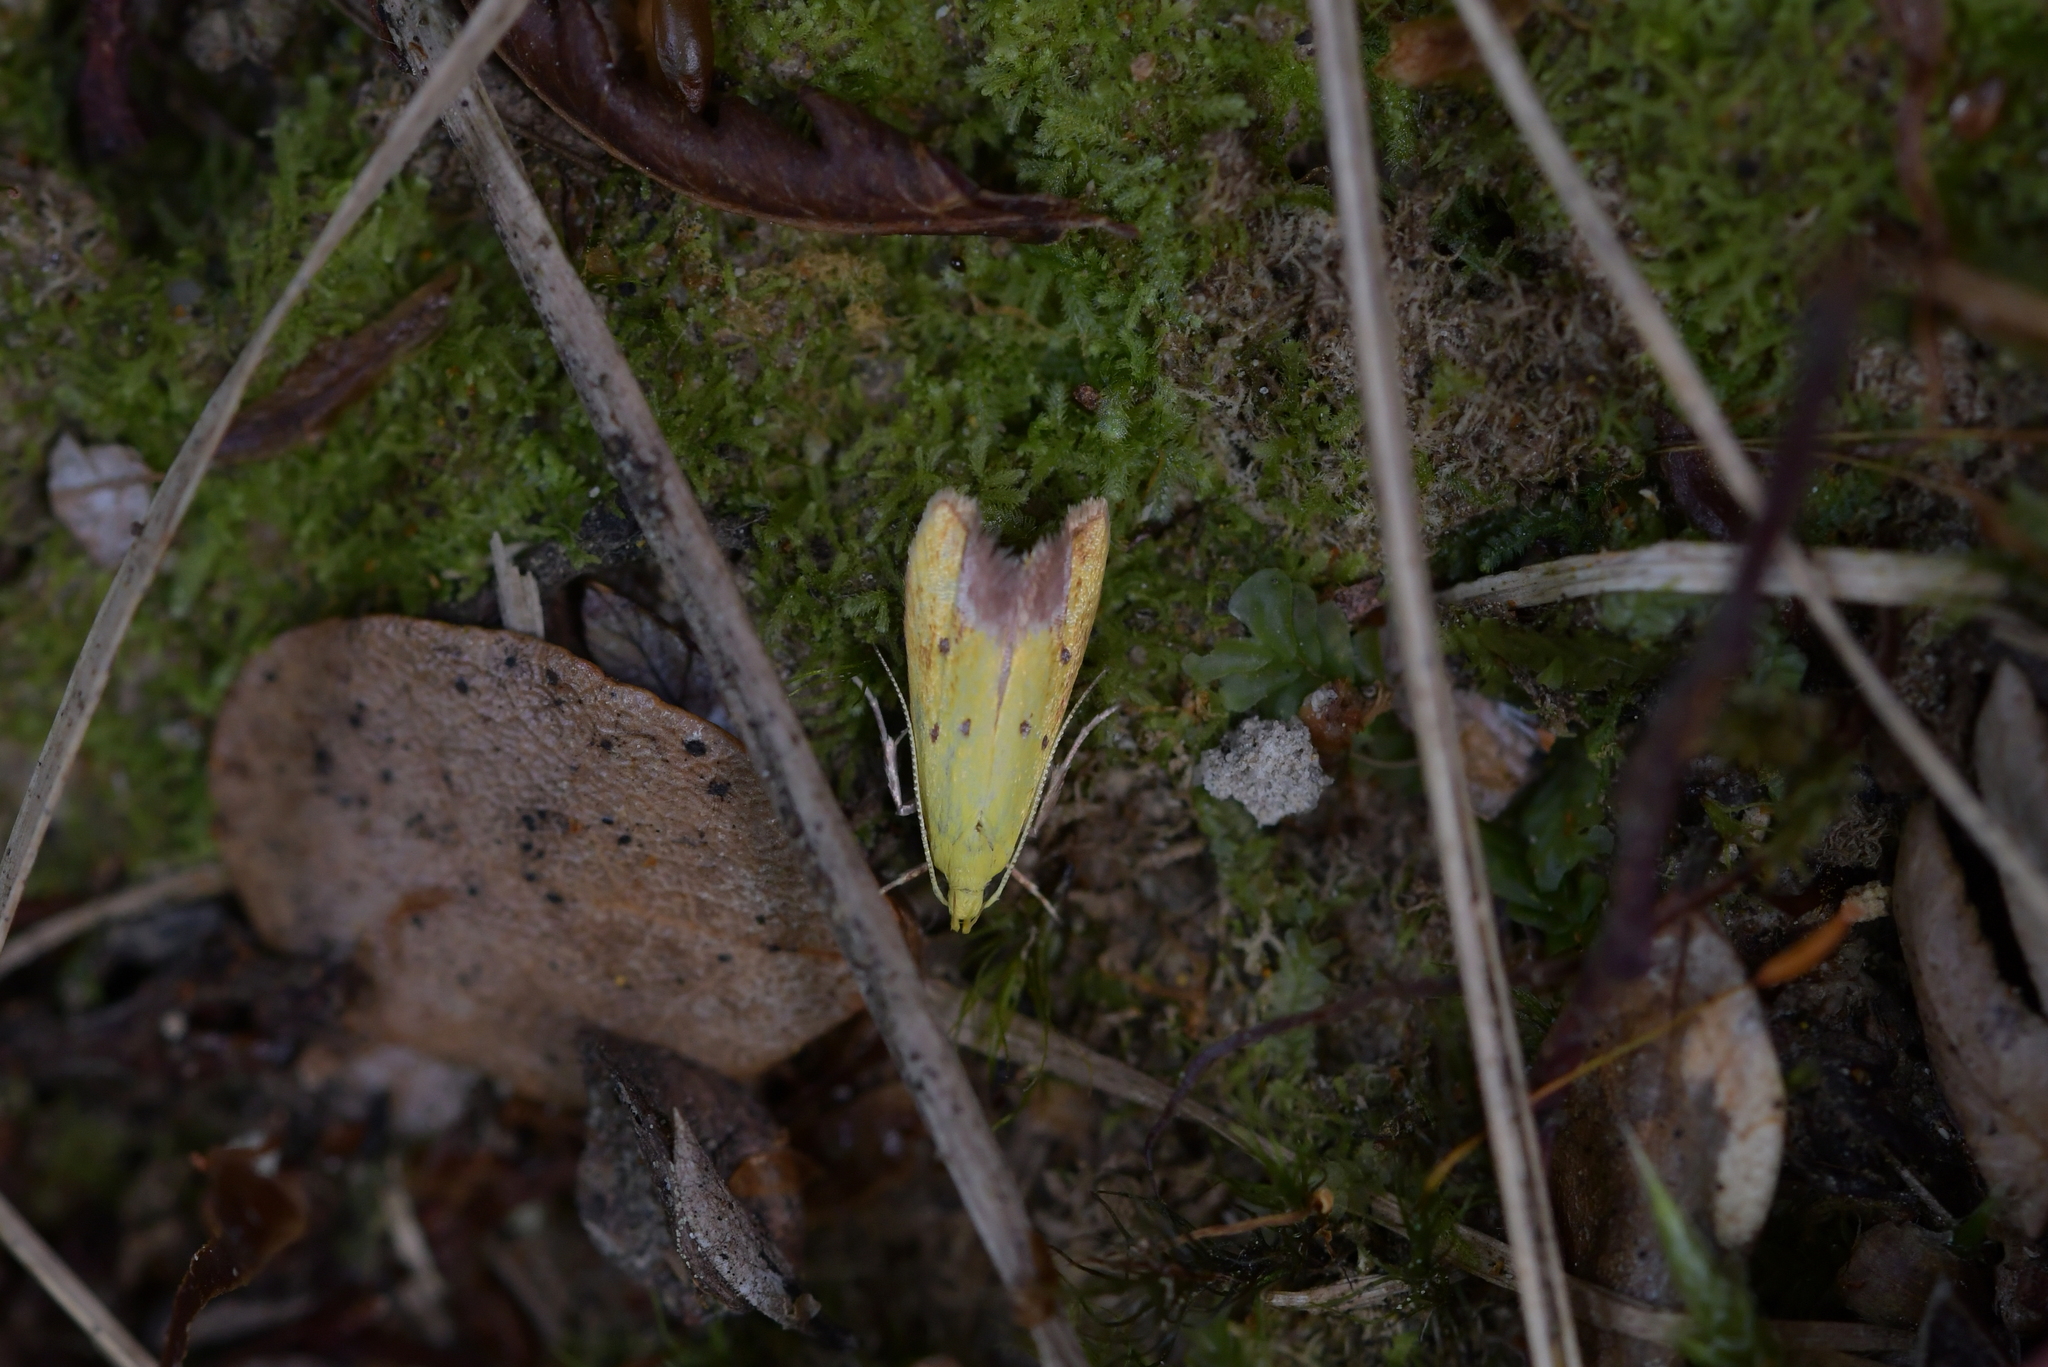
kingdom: Animalia
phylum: Arthropoda
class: Insecta
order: Lepidoptera
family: Oecophoridae
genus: Gymnobathra
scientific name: Gymnobathra flavidella
